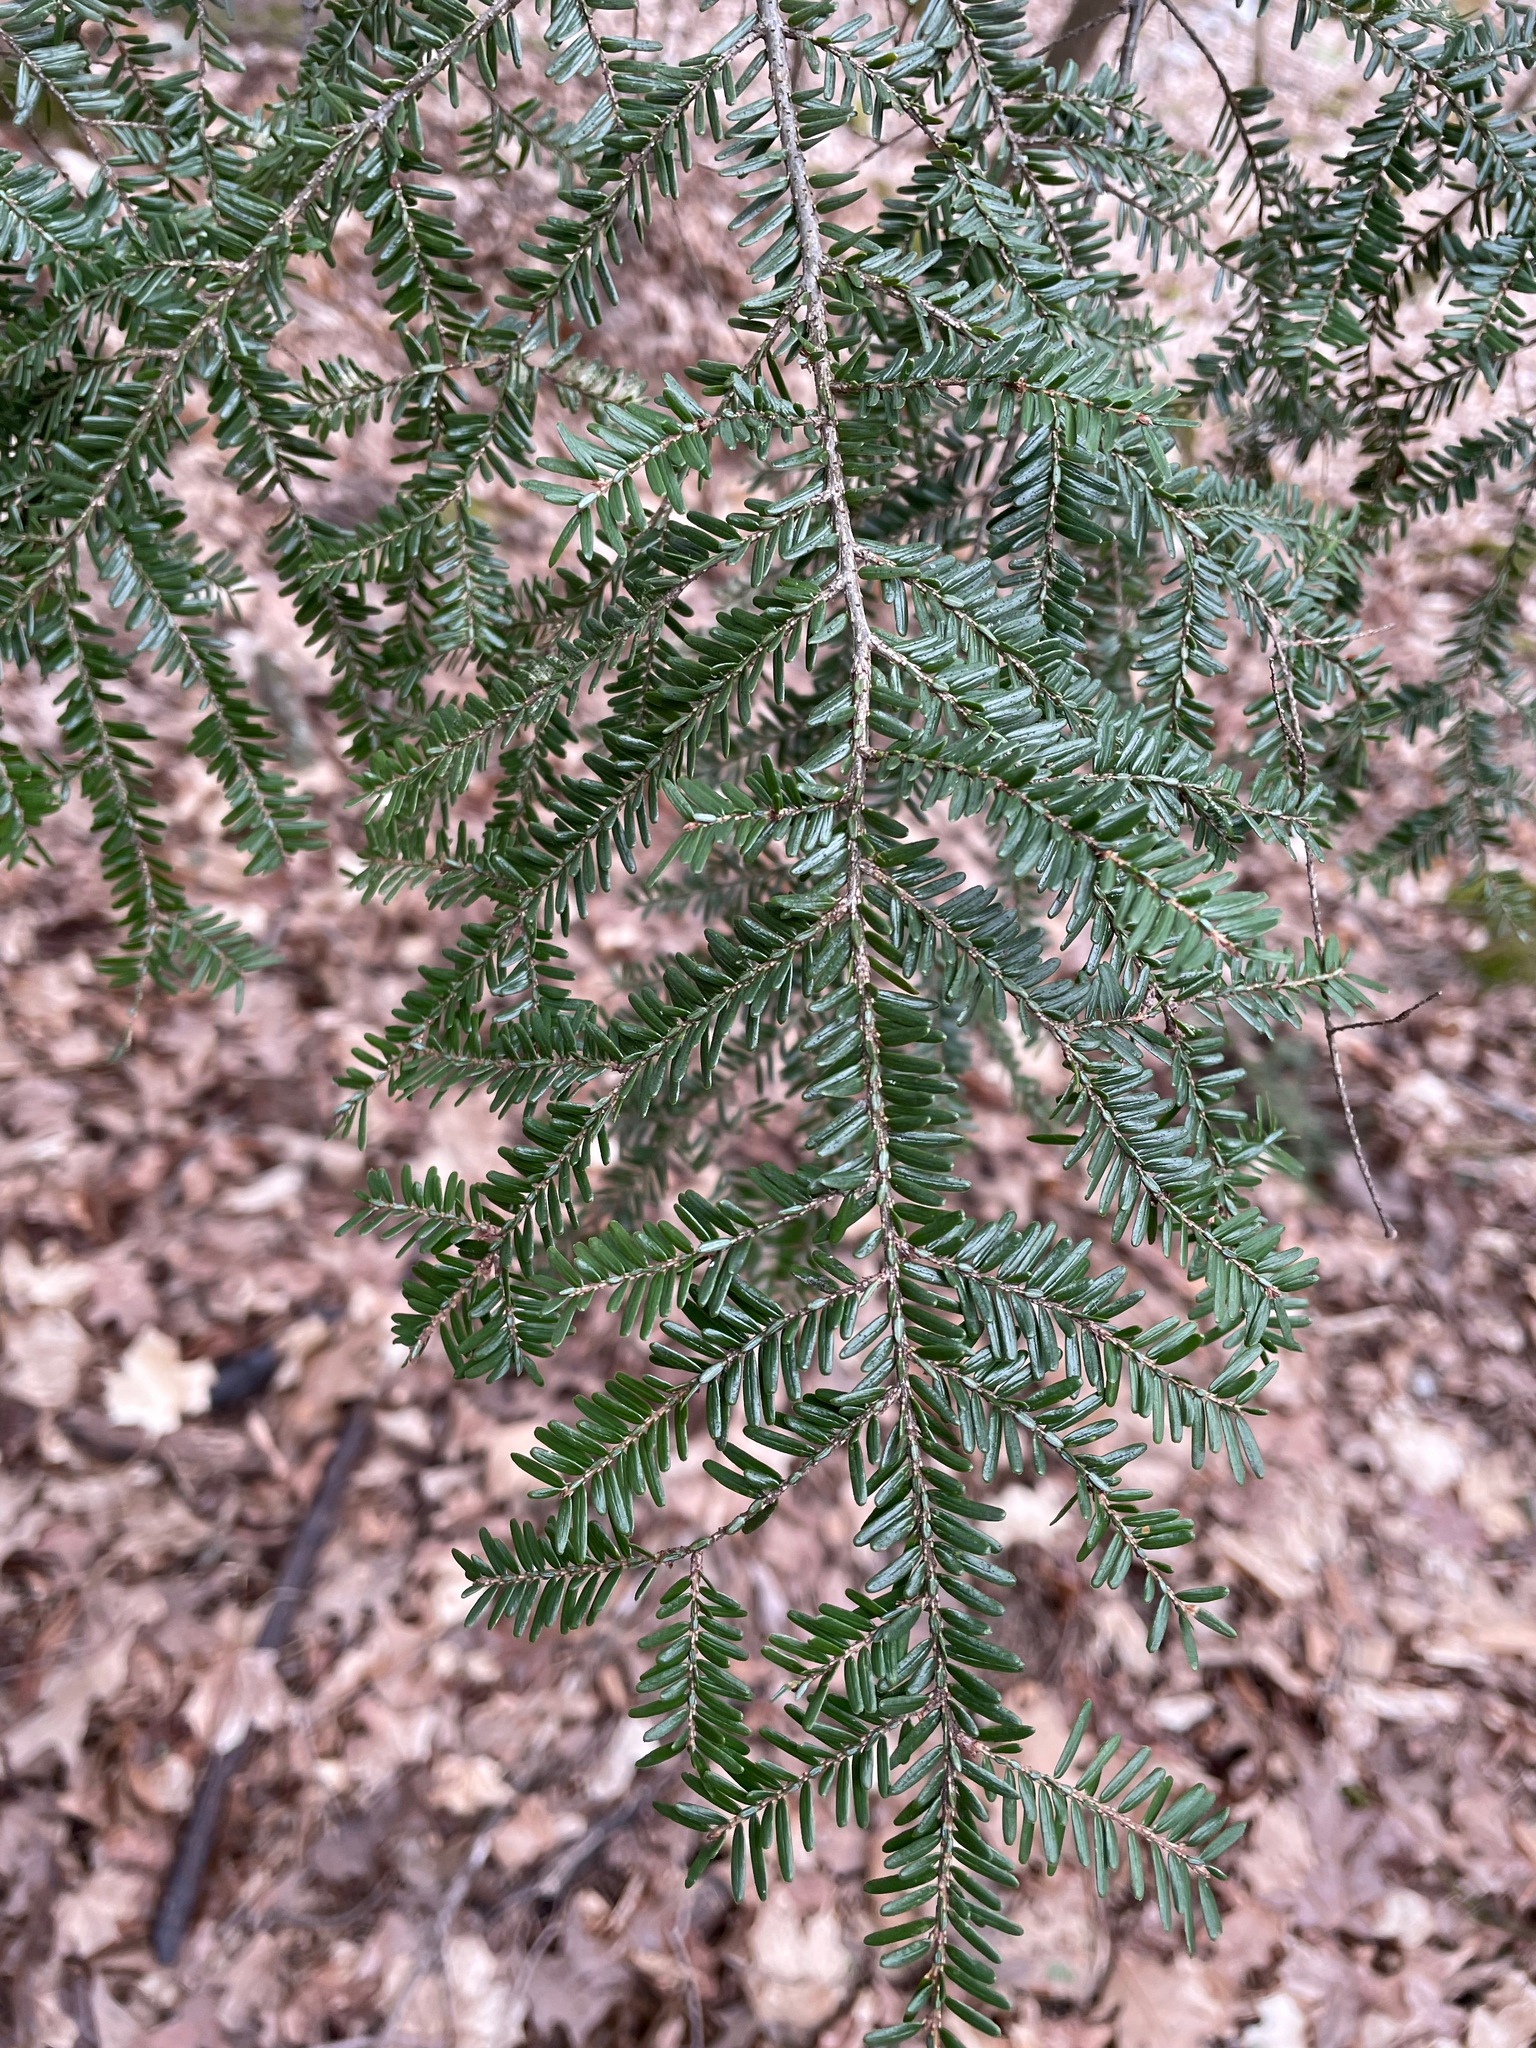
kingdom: Plantae
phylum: Tracheophyta
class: Pinopsida
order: Pinales
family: Pinaceae
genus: Tsuga
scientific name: Tsuga canadensis
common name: Eastern hemlock
